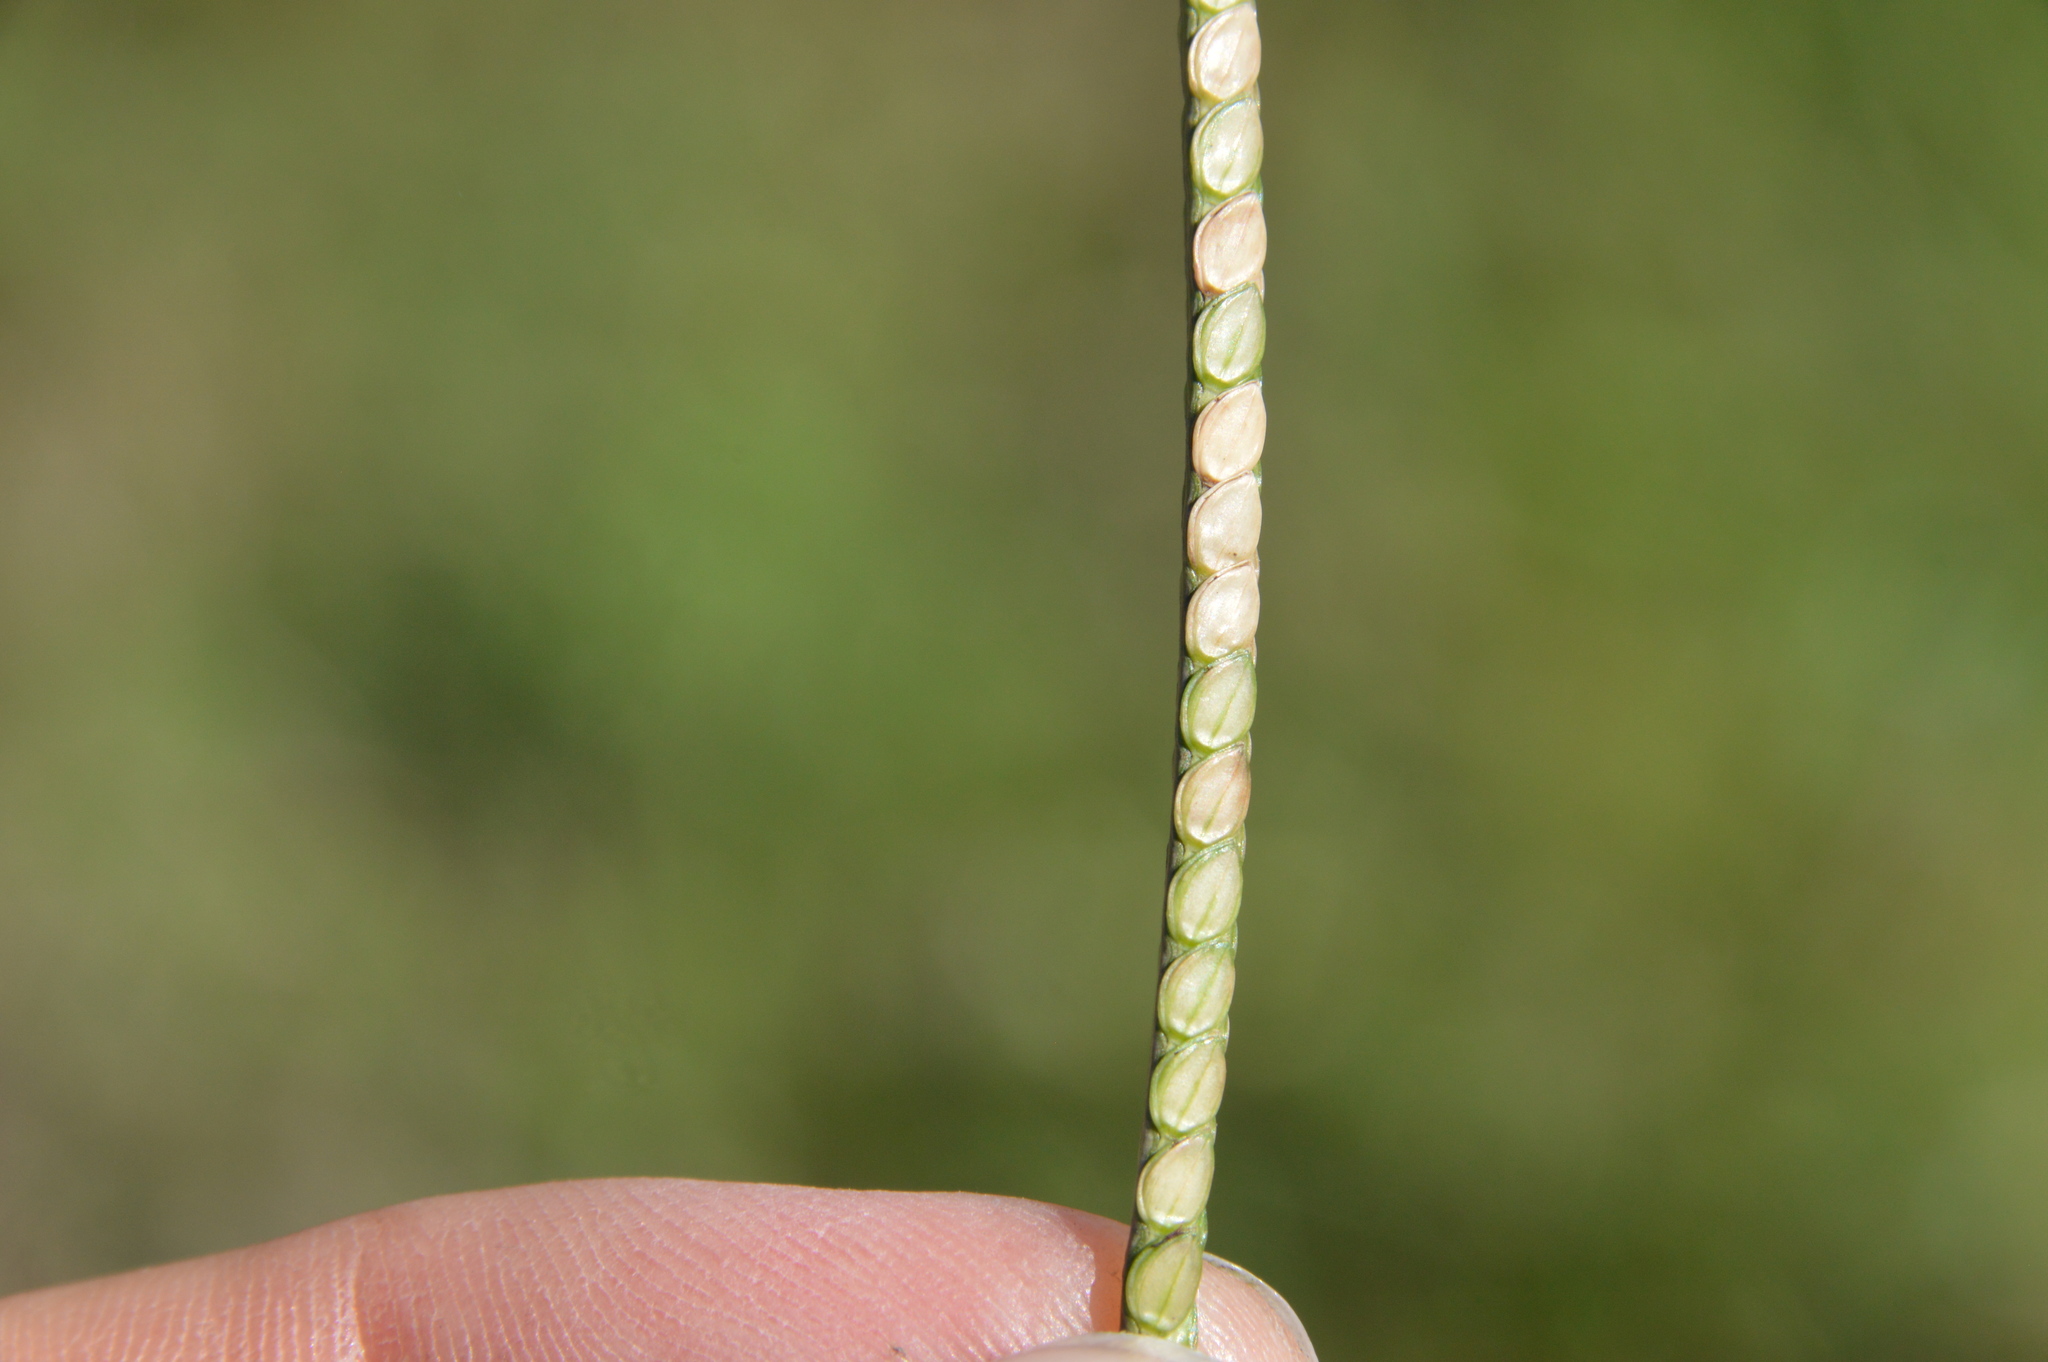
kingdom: Plantae
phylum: Tracheophyta
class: Liliopsida
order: Poales
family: Poaceae
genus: Paspalum
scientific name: Paspalum notatum
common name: Bahiagrass
